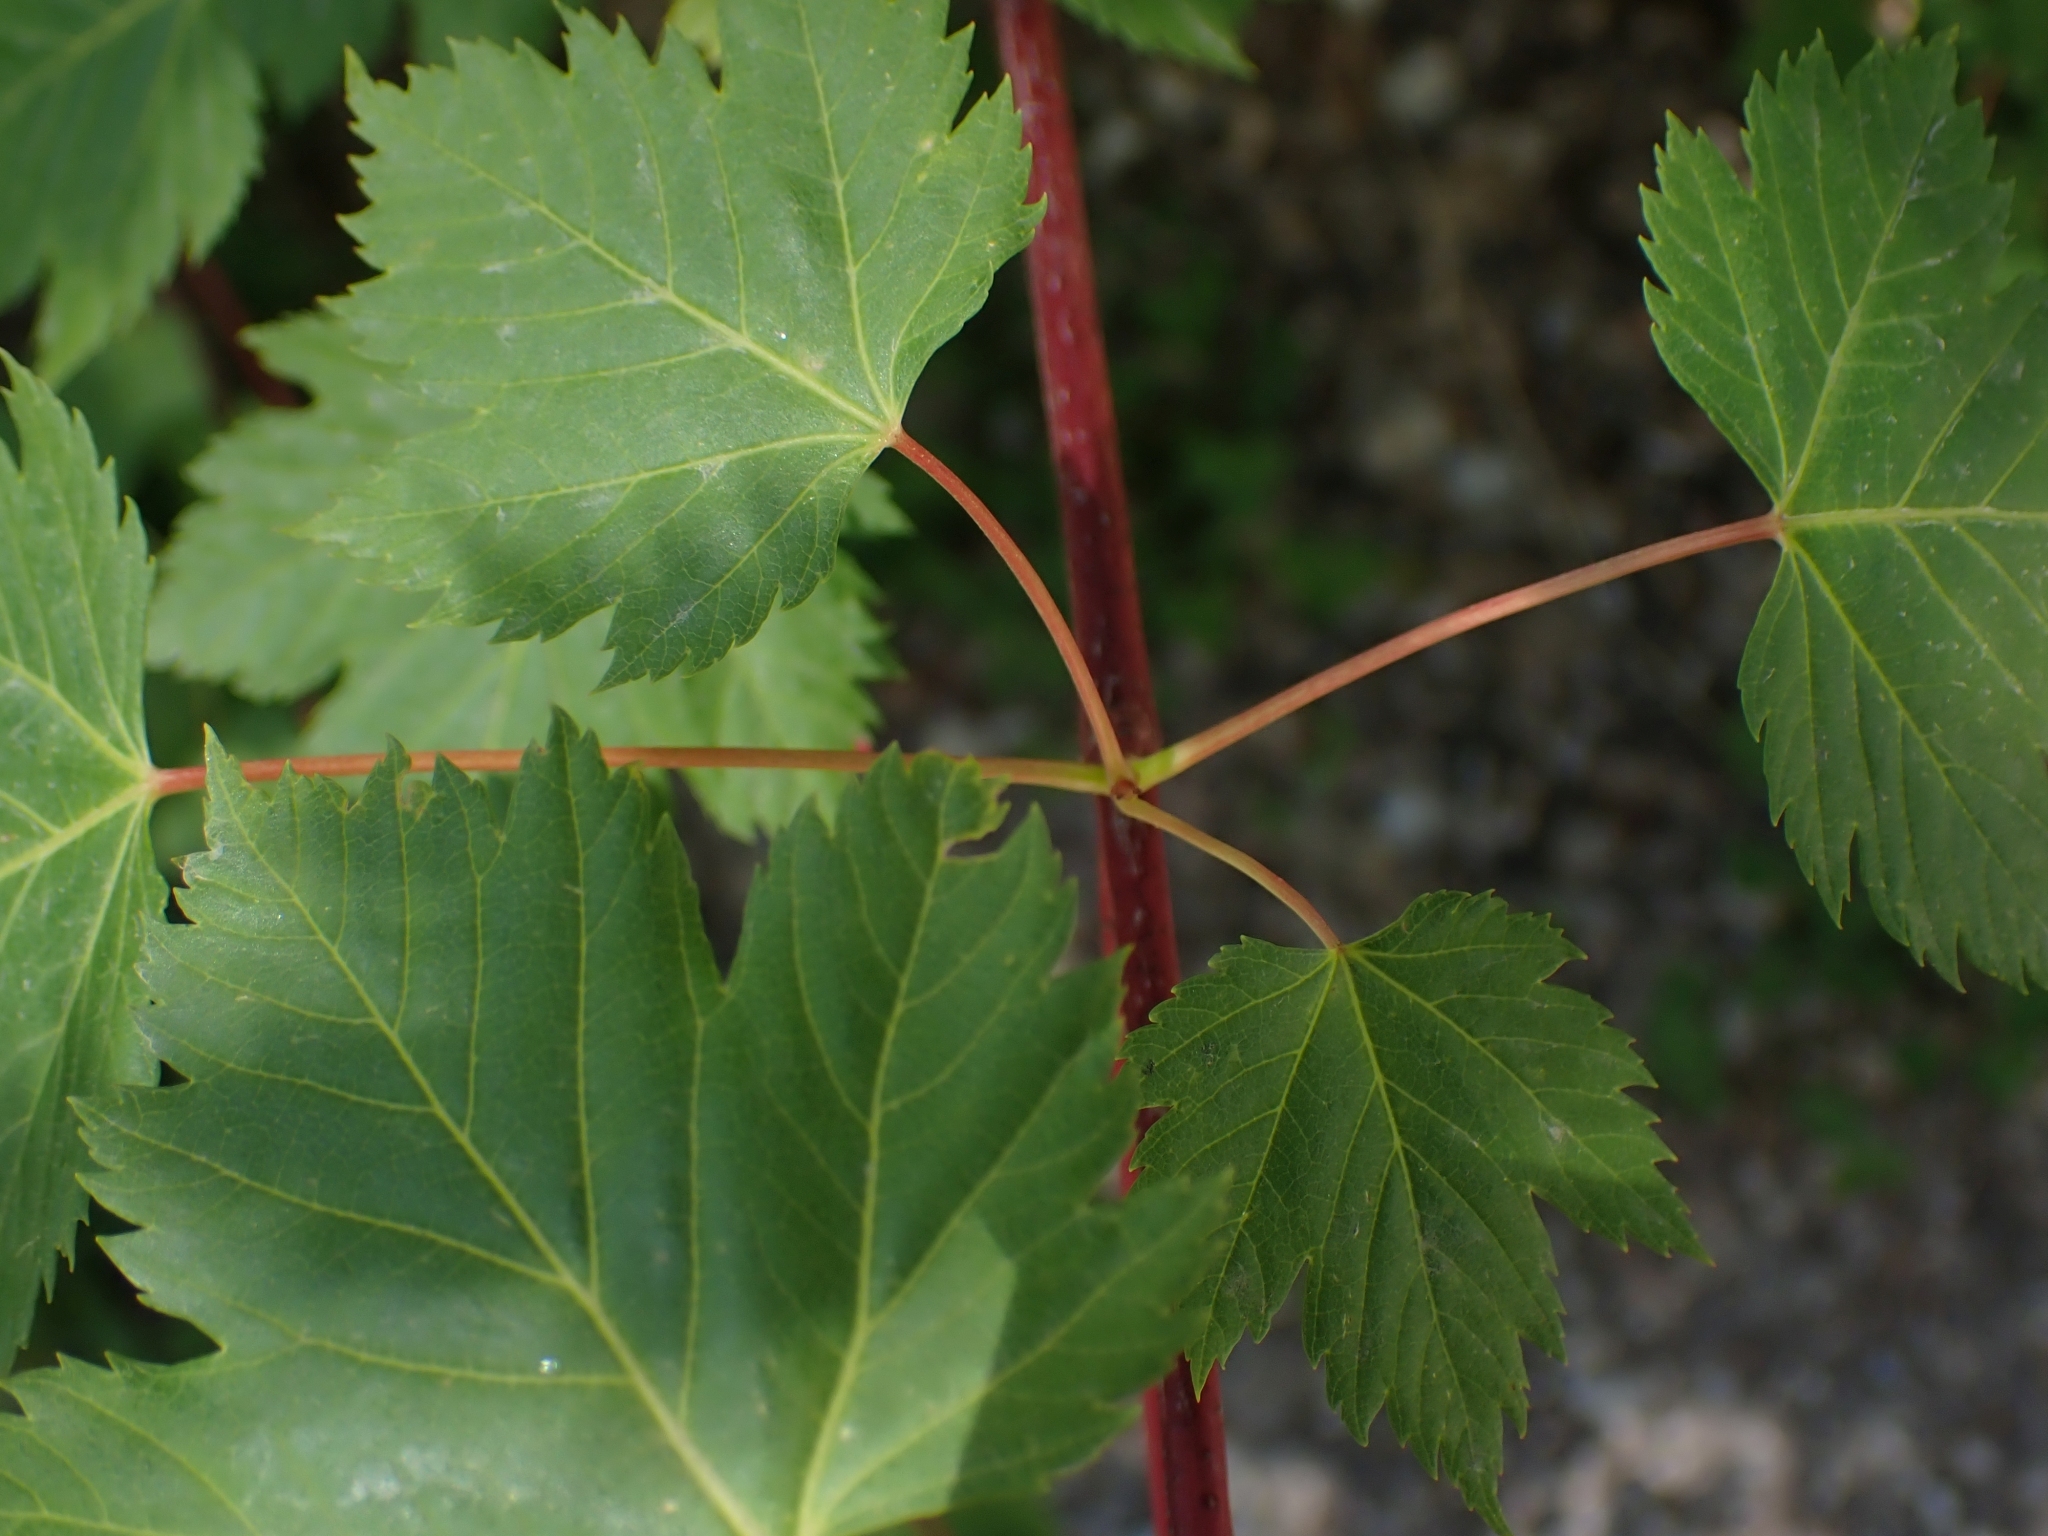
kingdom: Plantae
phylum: Tracheophyta
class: Magnoliopsida
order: Sapindales
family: Sapindaceae
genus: Acer
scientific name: Acer glabrum
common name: Rocky mountain maple
